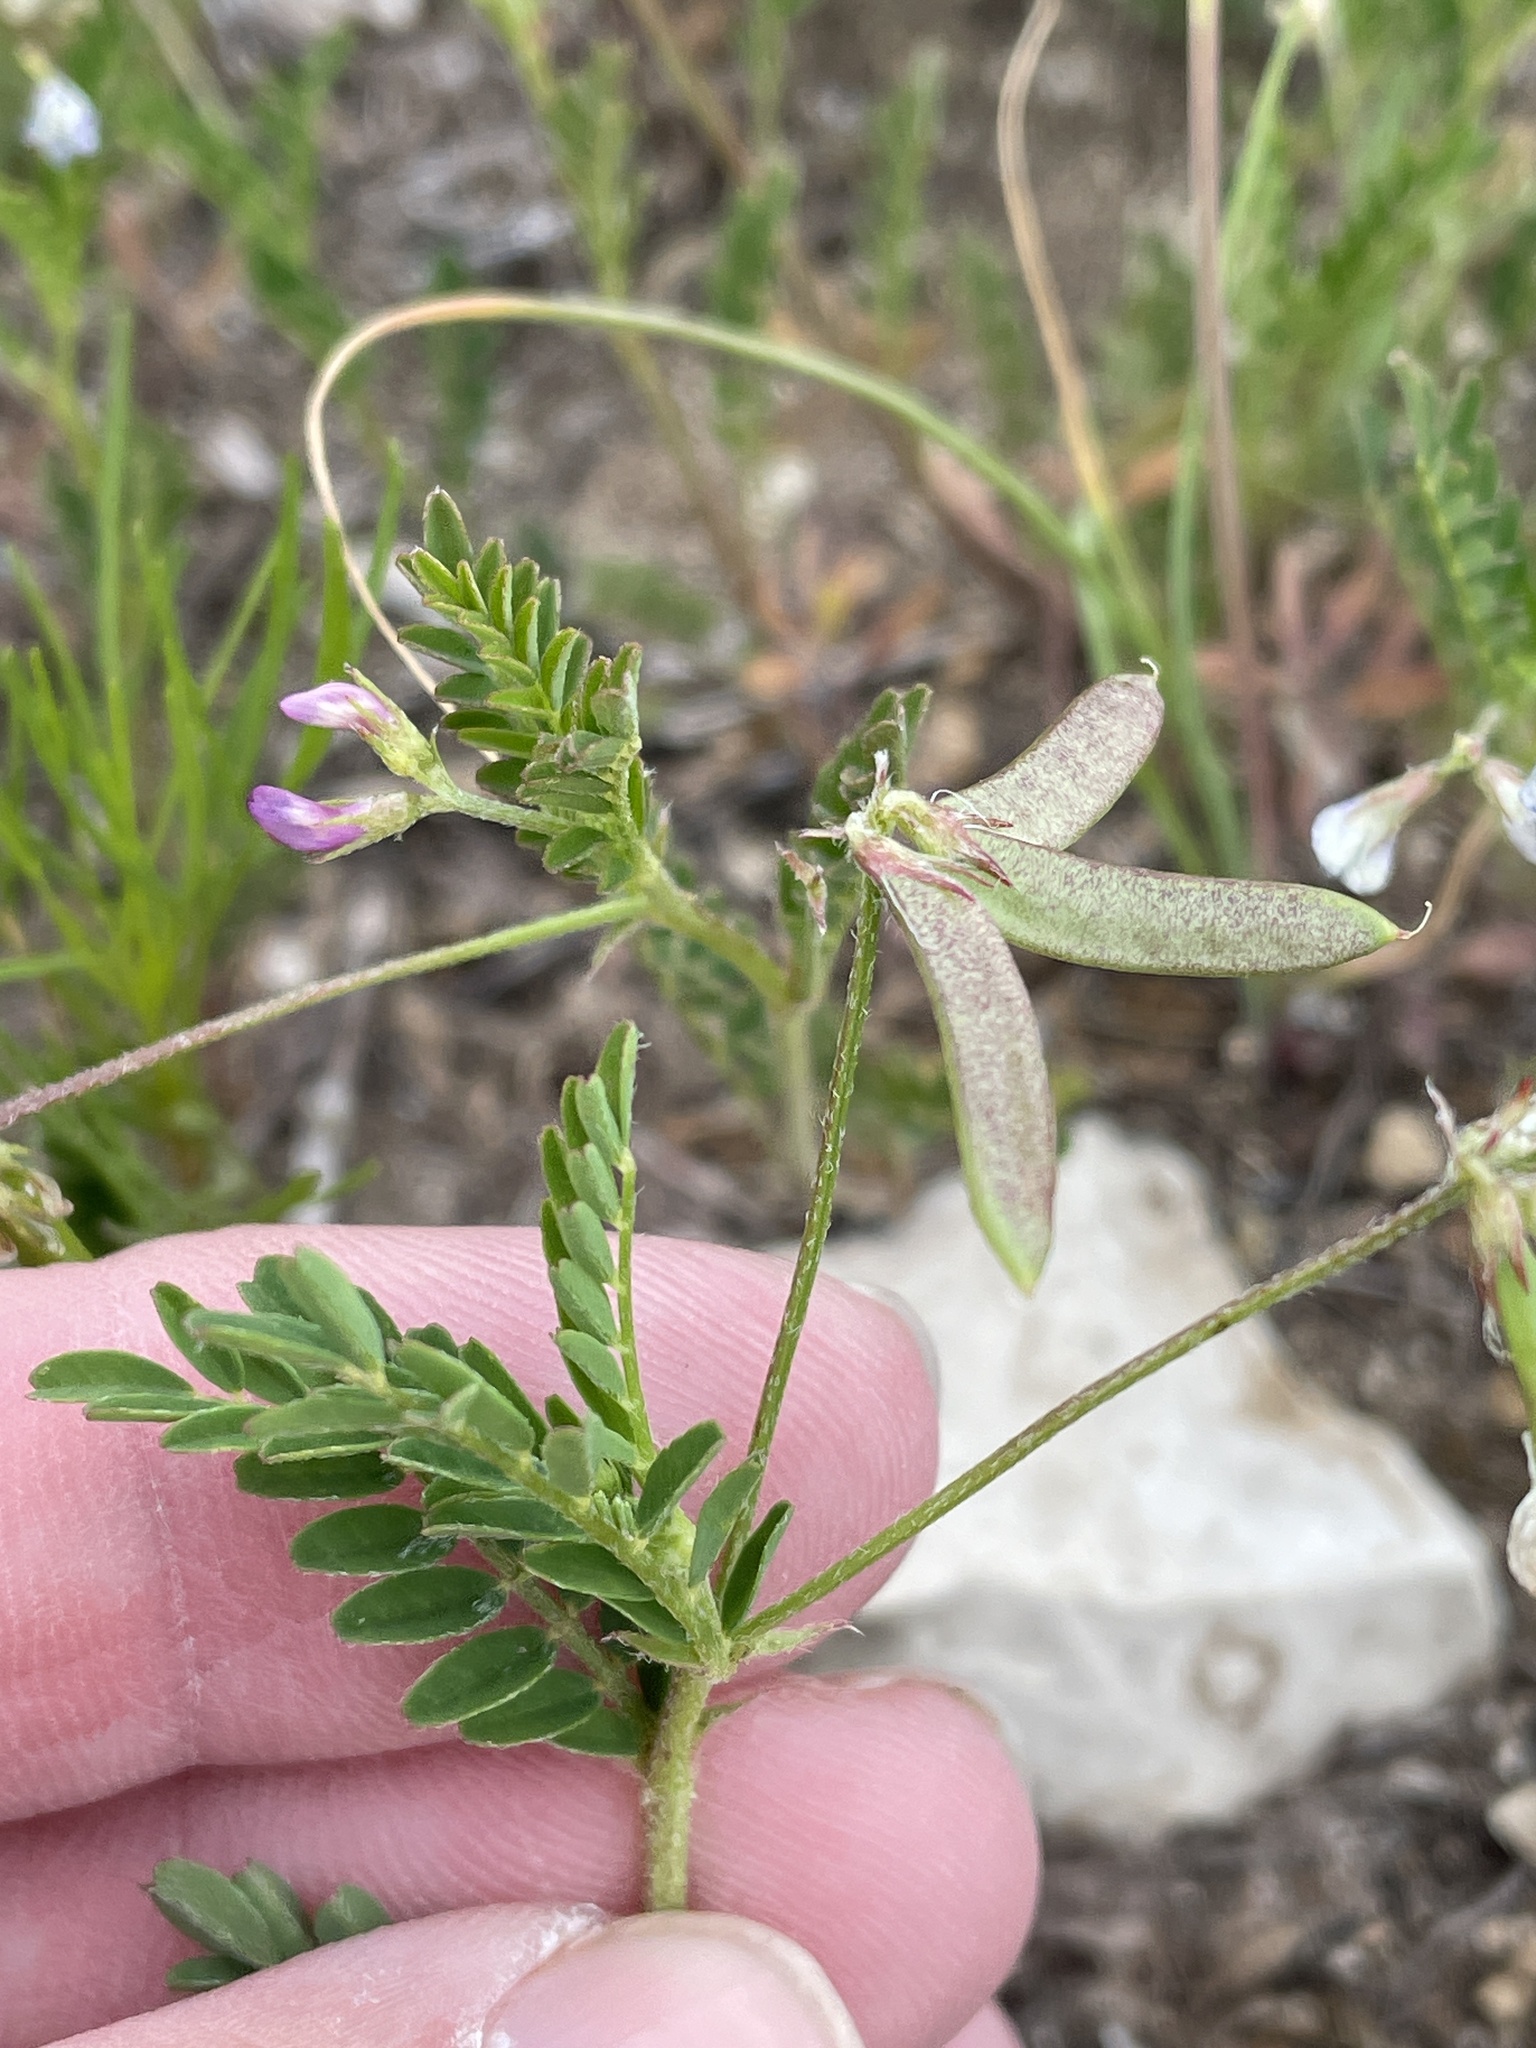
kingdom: Plantae
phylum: Tracheophyta
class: Magnoliopsida
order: Fabales
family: Fabaceae
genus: Astragalus
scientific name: Astragalus nuttallianus
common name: Smallflowered milkvetch
